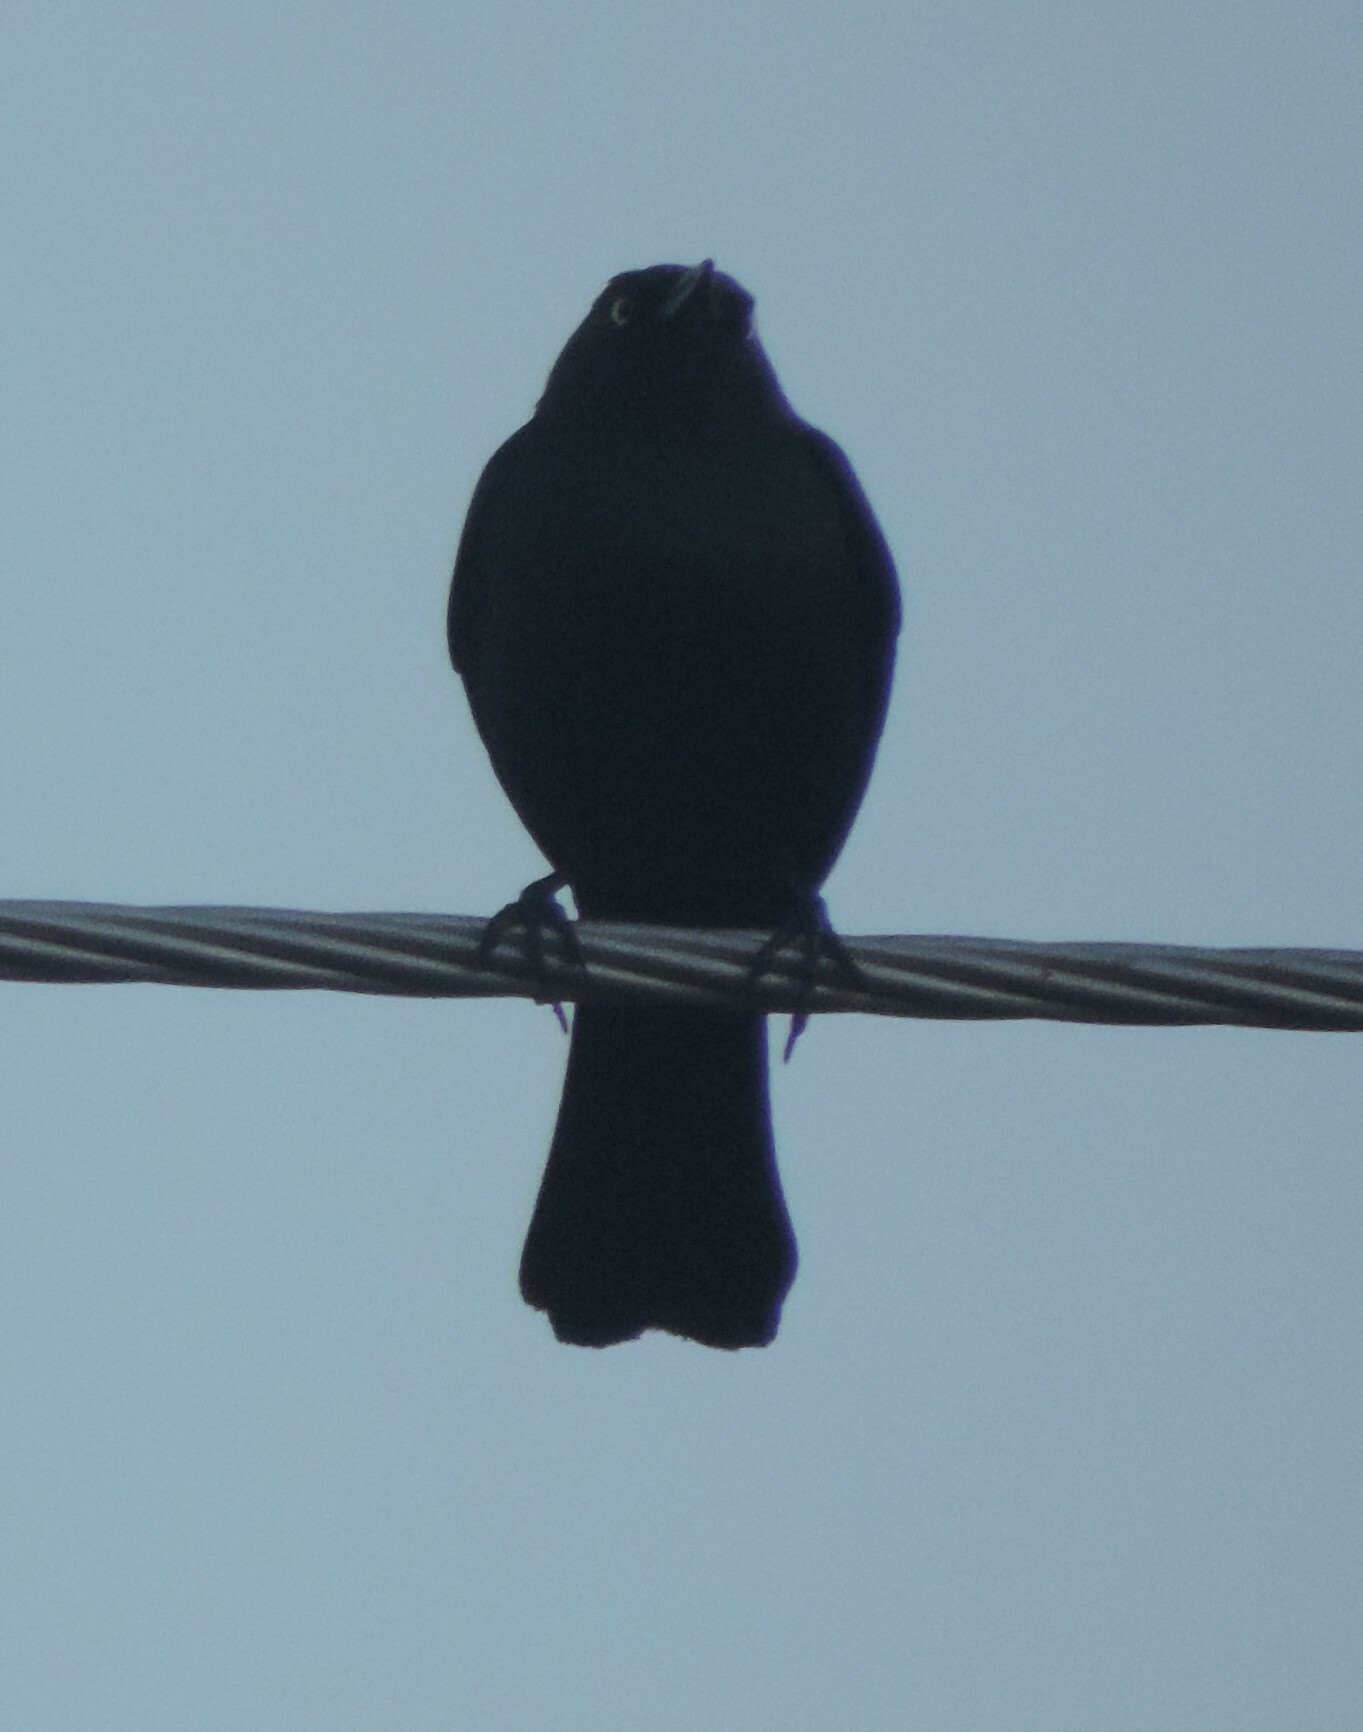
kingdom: Animalia
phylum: Chordata
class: Aves
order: Passeriformes
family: Icteridae
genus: Euphagus
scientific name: Euphagus cyanocephalus
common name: Brewer's blackbird
